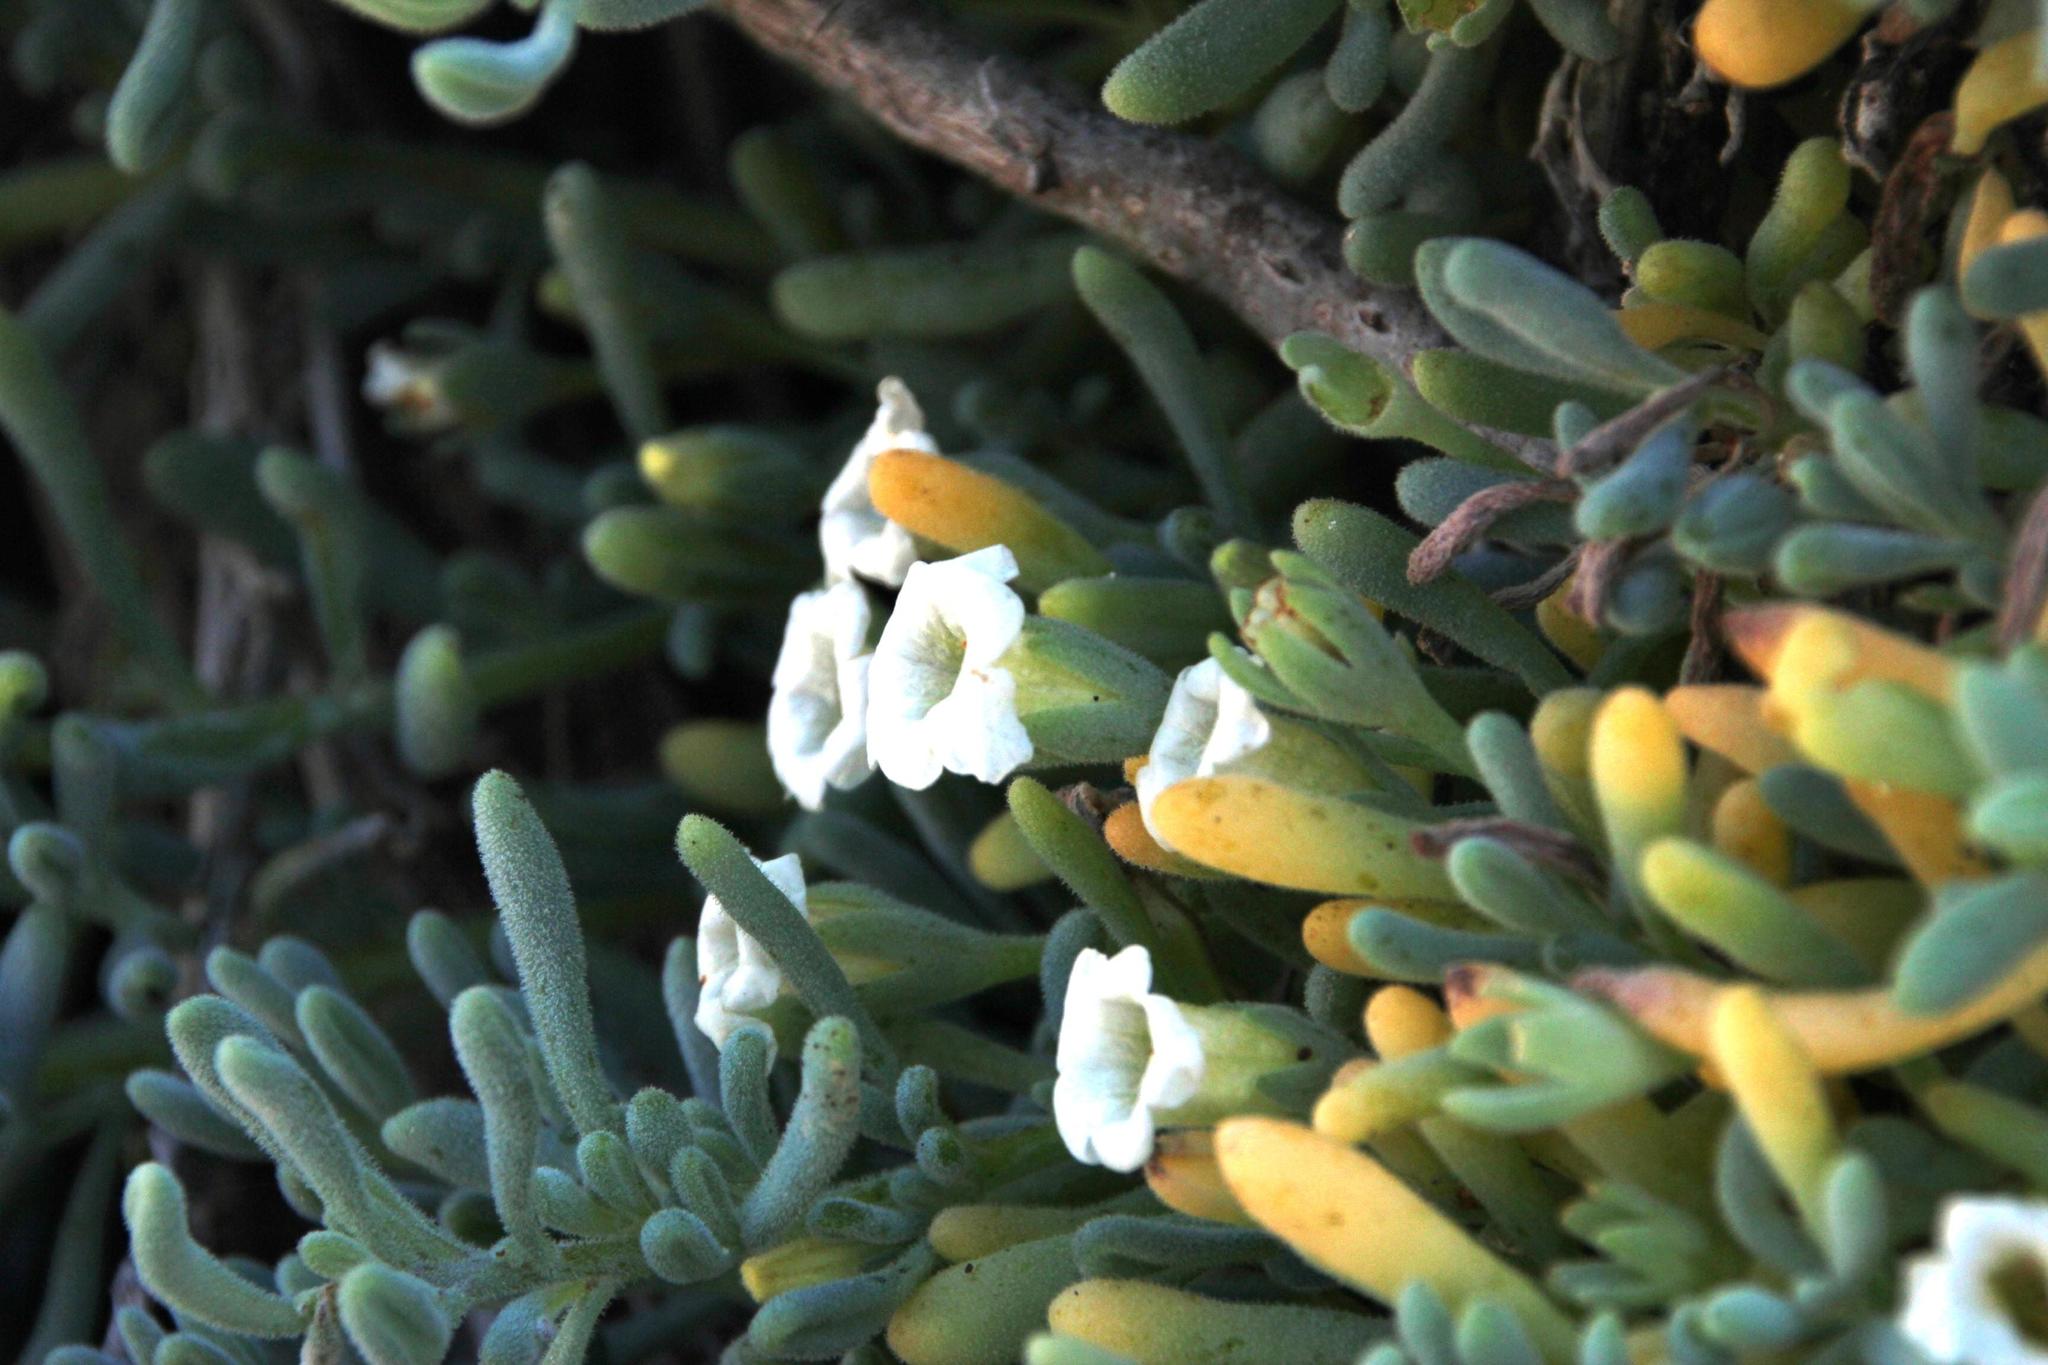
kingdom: Plantae
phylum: Tracheophyta
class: Magnoliopsida
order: Solanales
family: Solanaceae
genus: Nolana
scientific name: Nolana crassulifolia
